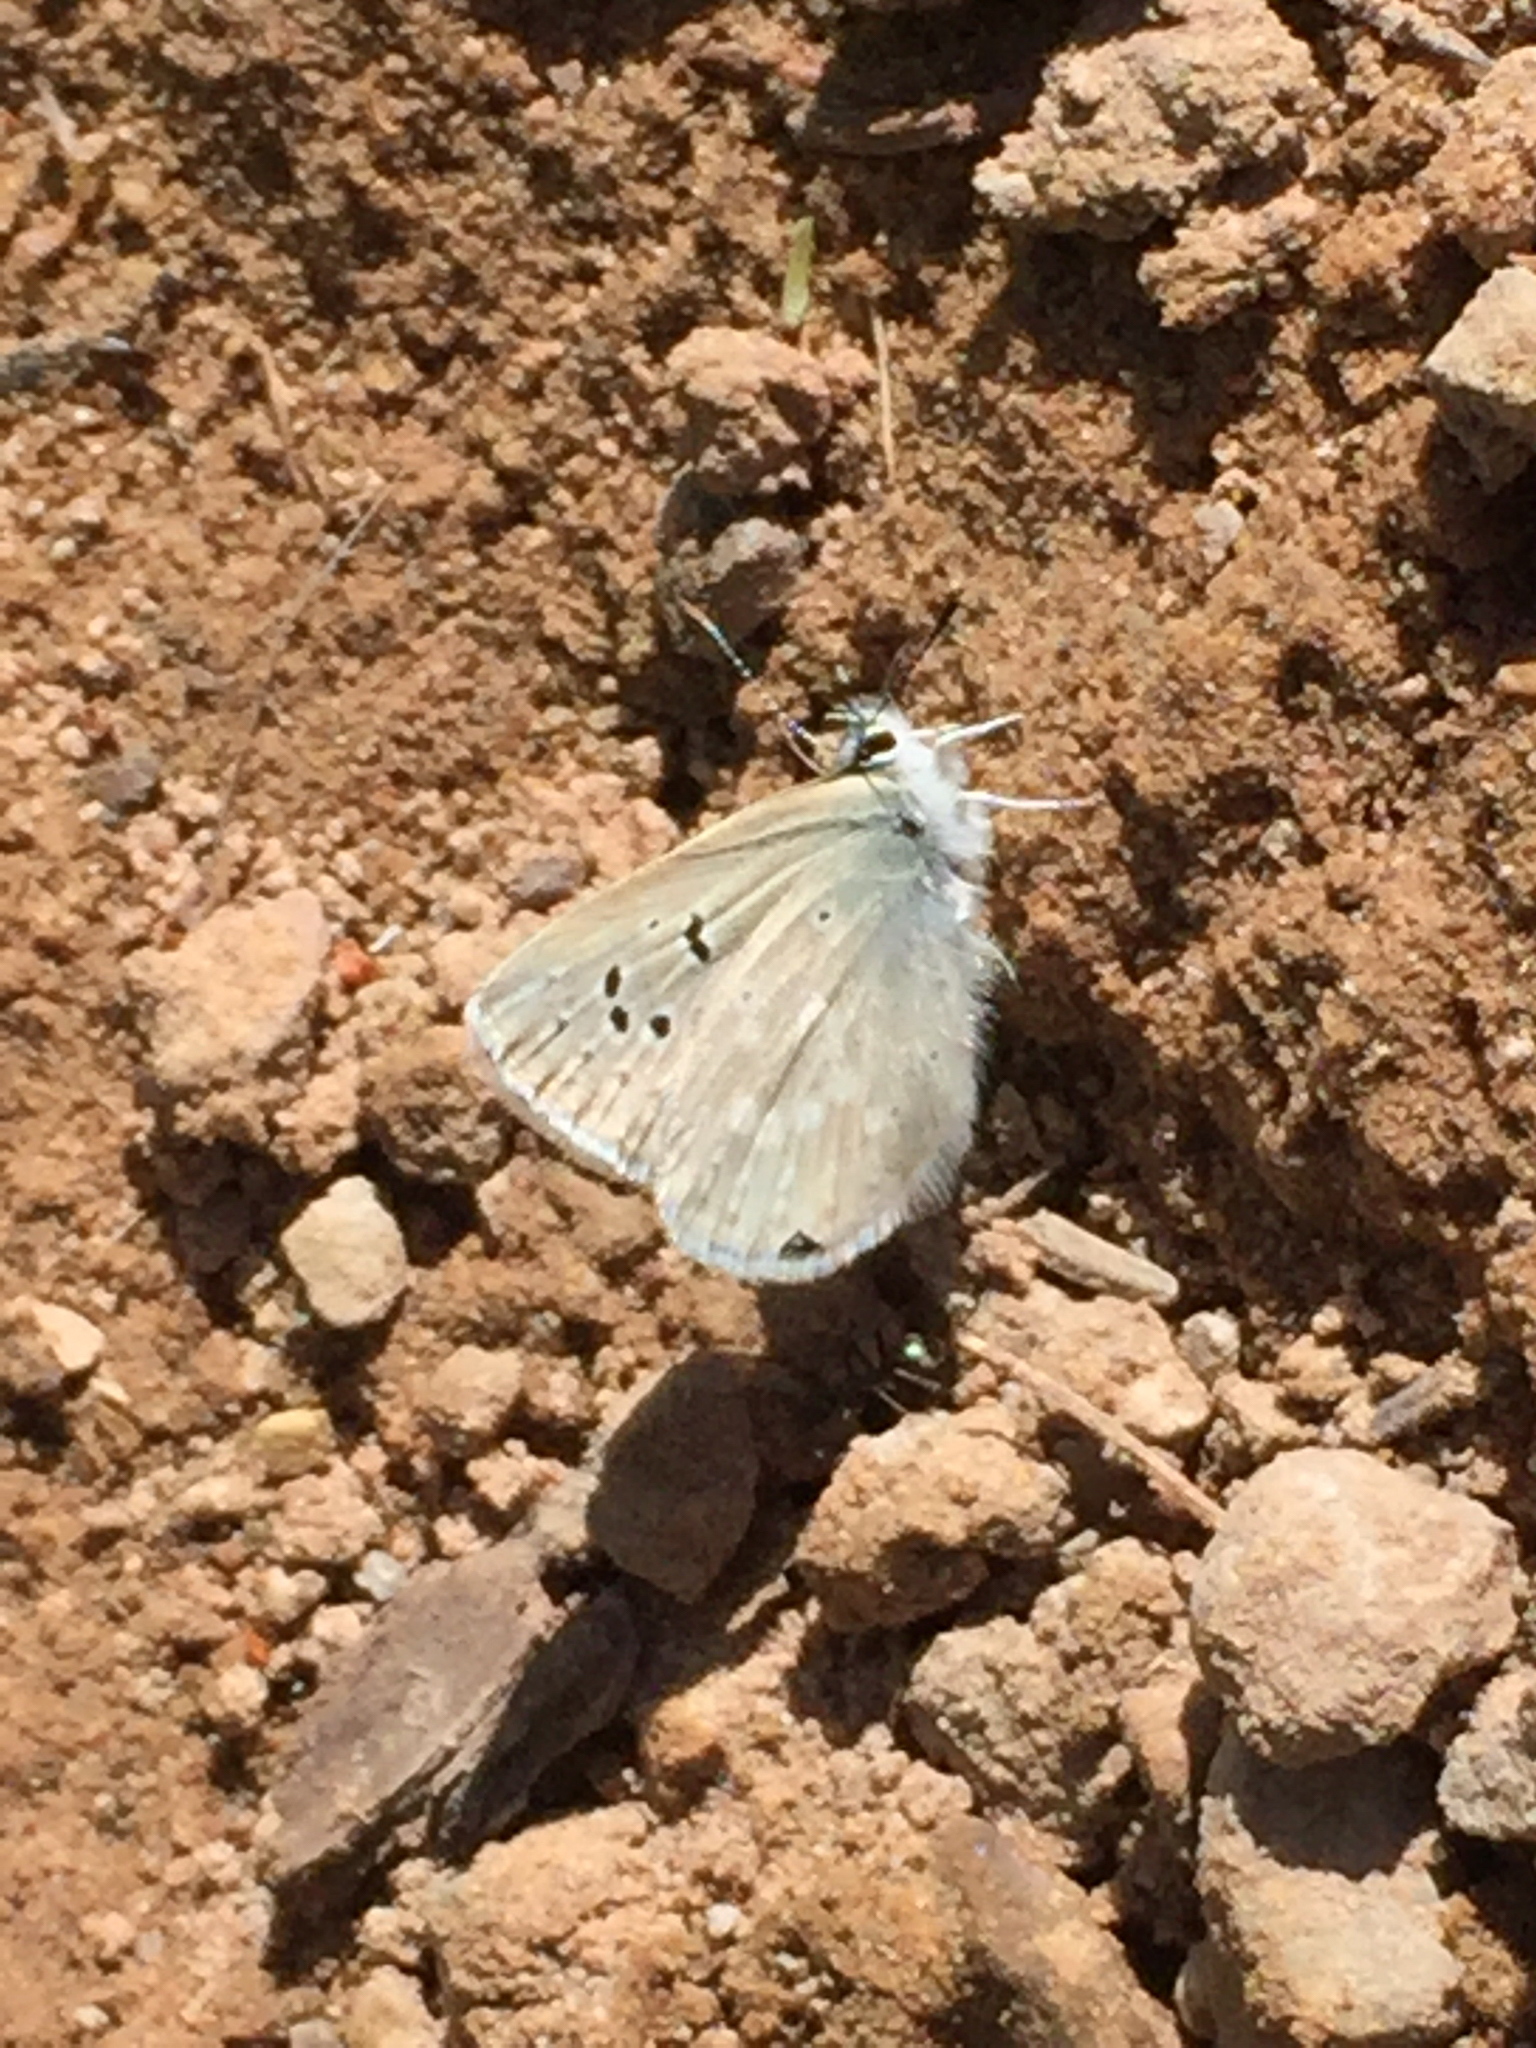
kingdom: Animalia
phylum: Arthropoda
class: Insecta
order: Lepidoptera
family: Lycaenidae
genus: Icaricia
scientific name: Icaricia icarioides
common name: Boisduval's blue
